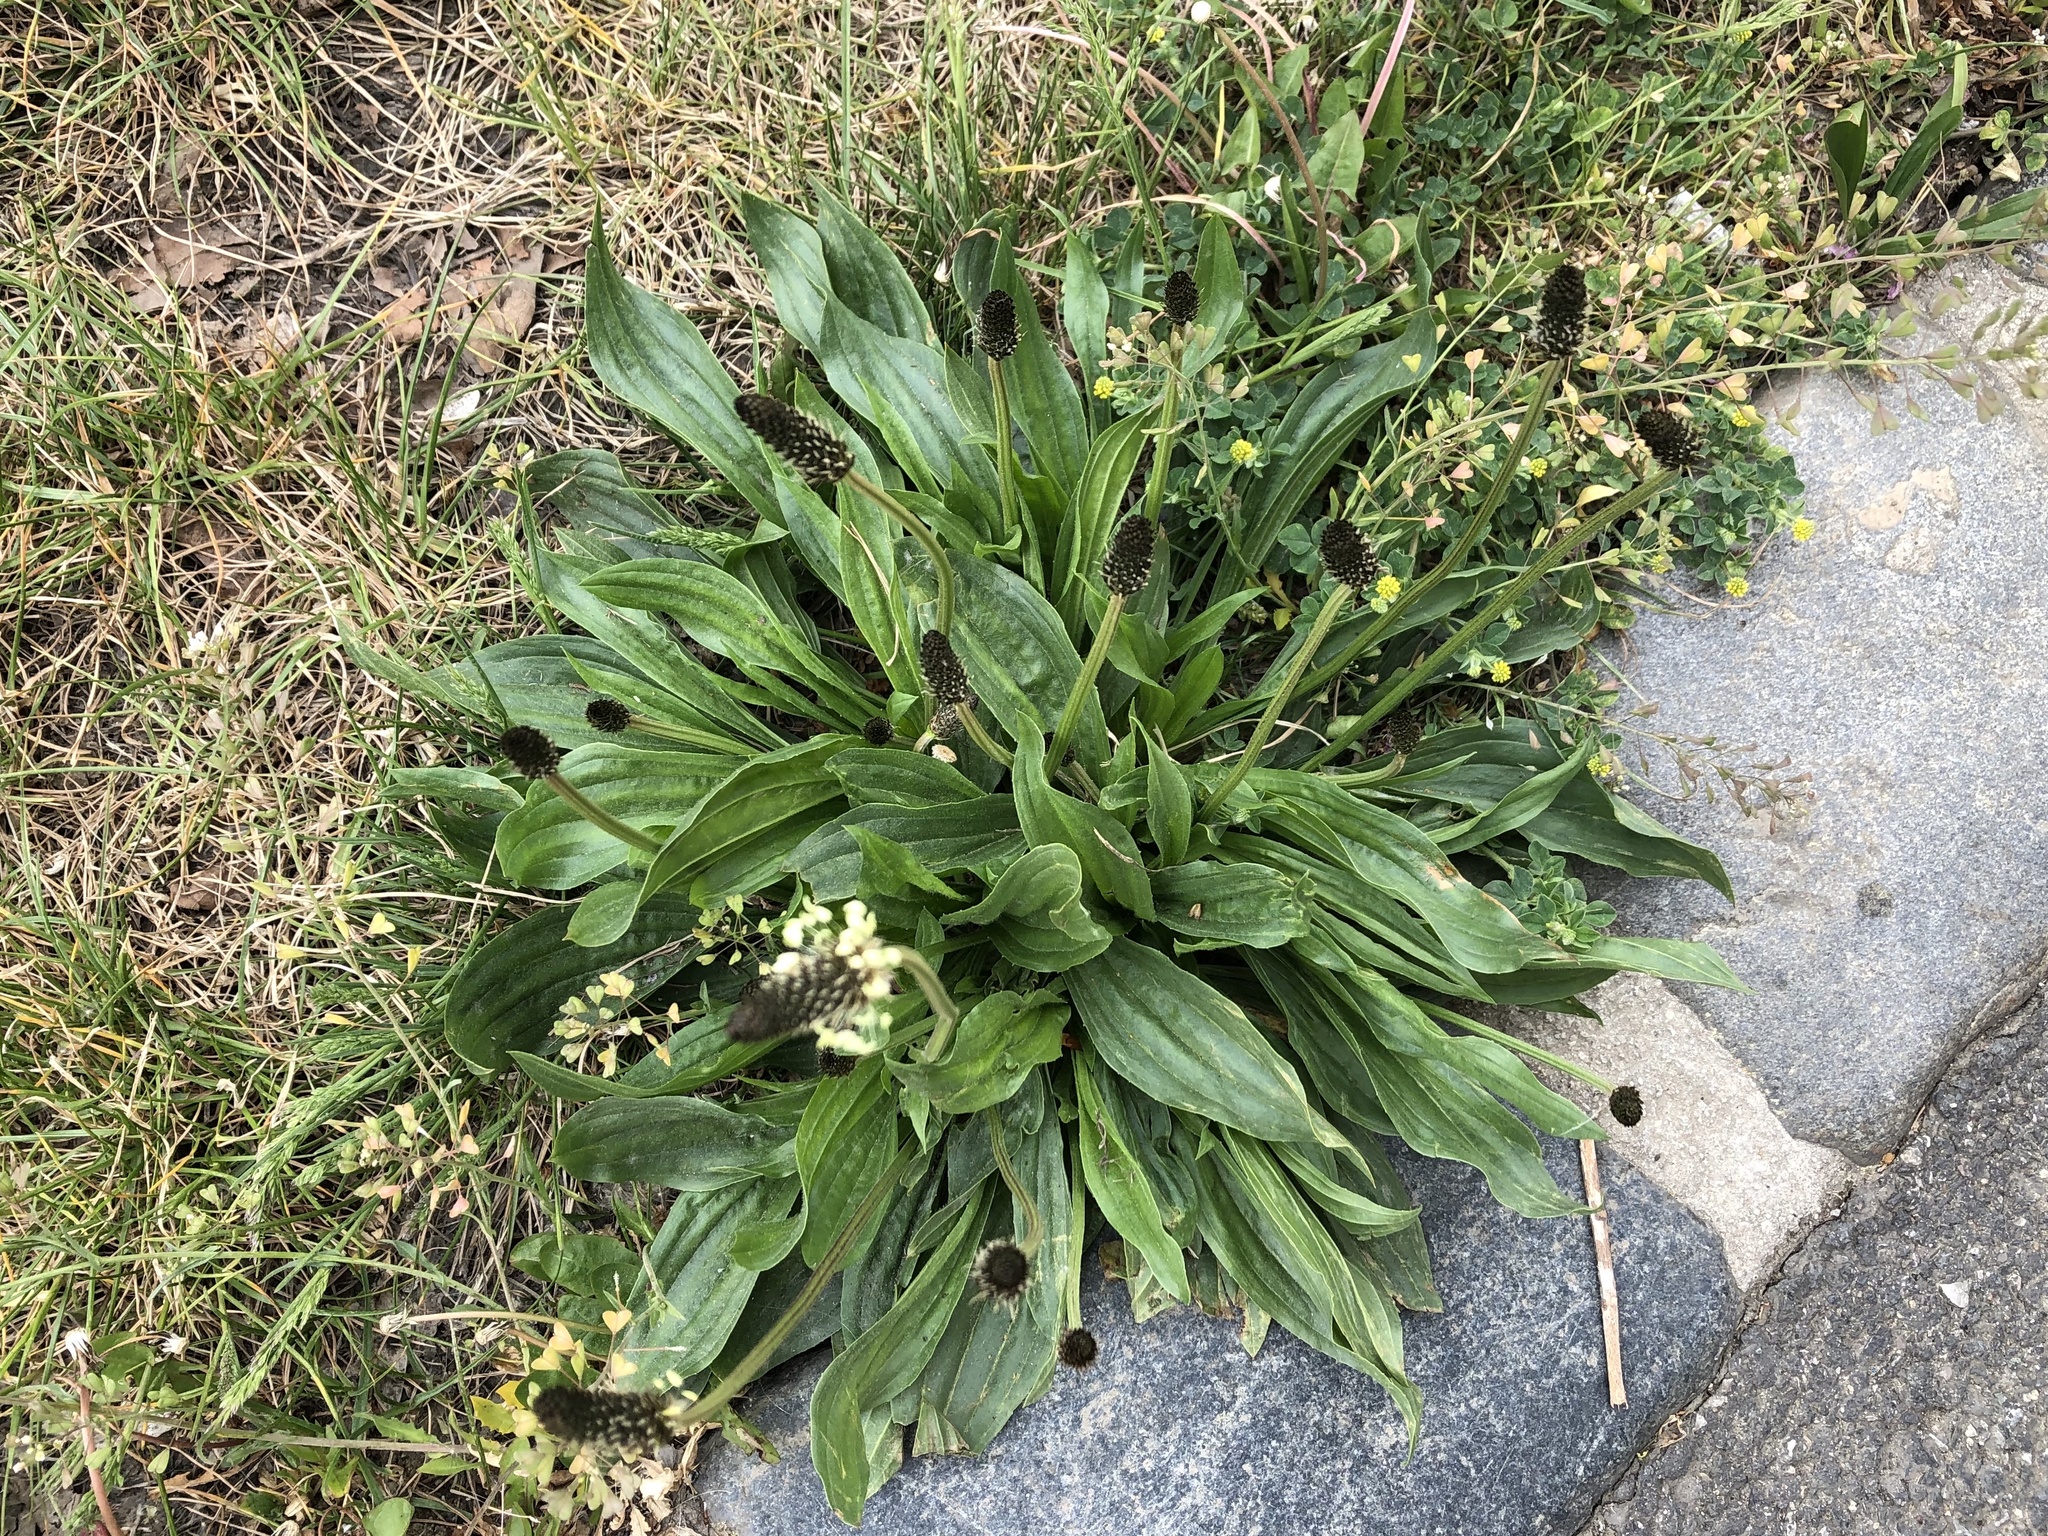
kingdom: Plantae
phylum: Tracheophyta
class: Magnoliopsida
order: Lamiales
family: Plantaginaceae
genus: Plantago
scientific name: Plantago lanceolata
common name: Ribwort plantain
